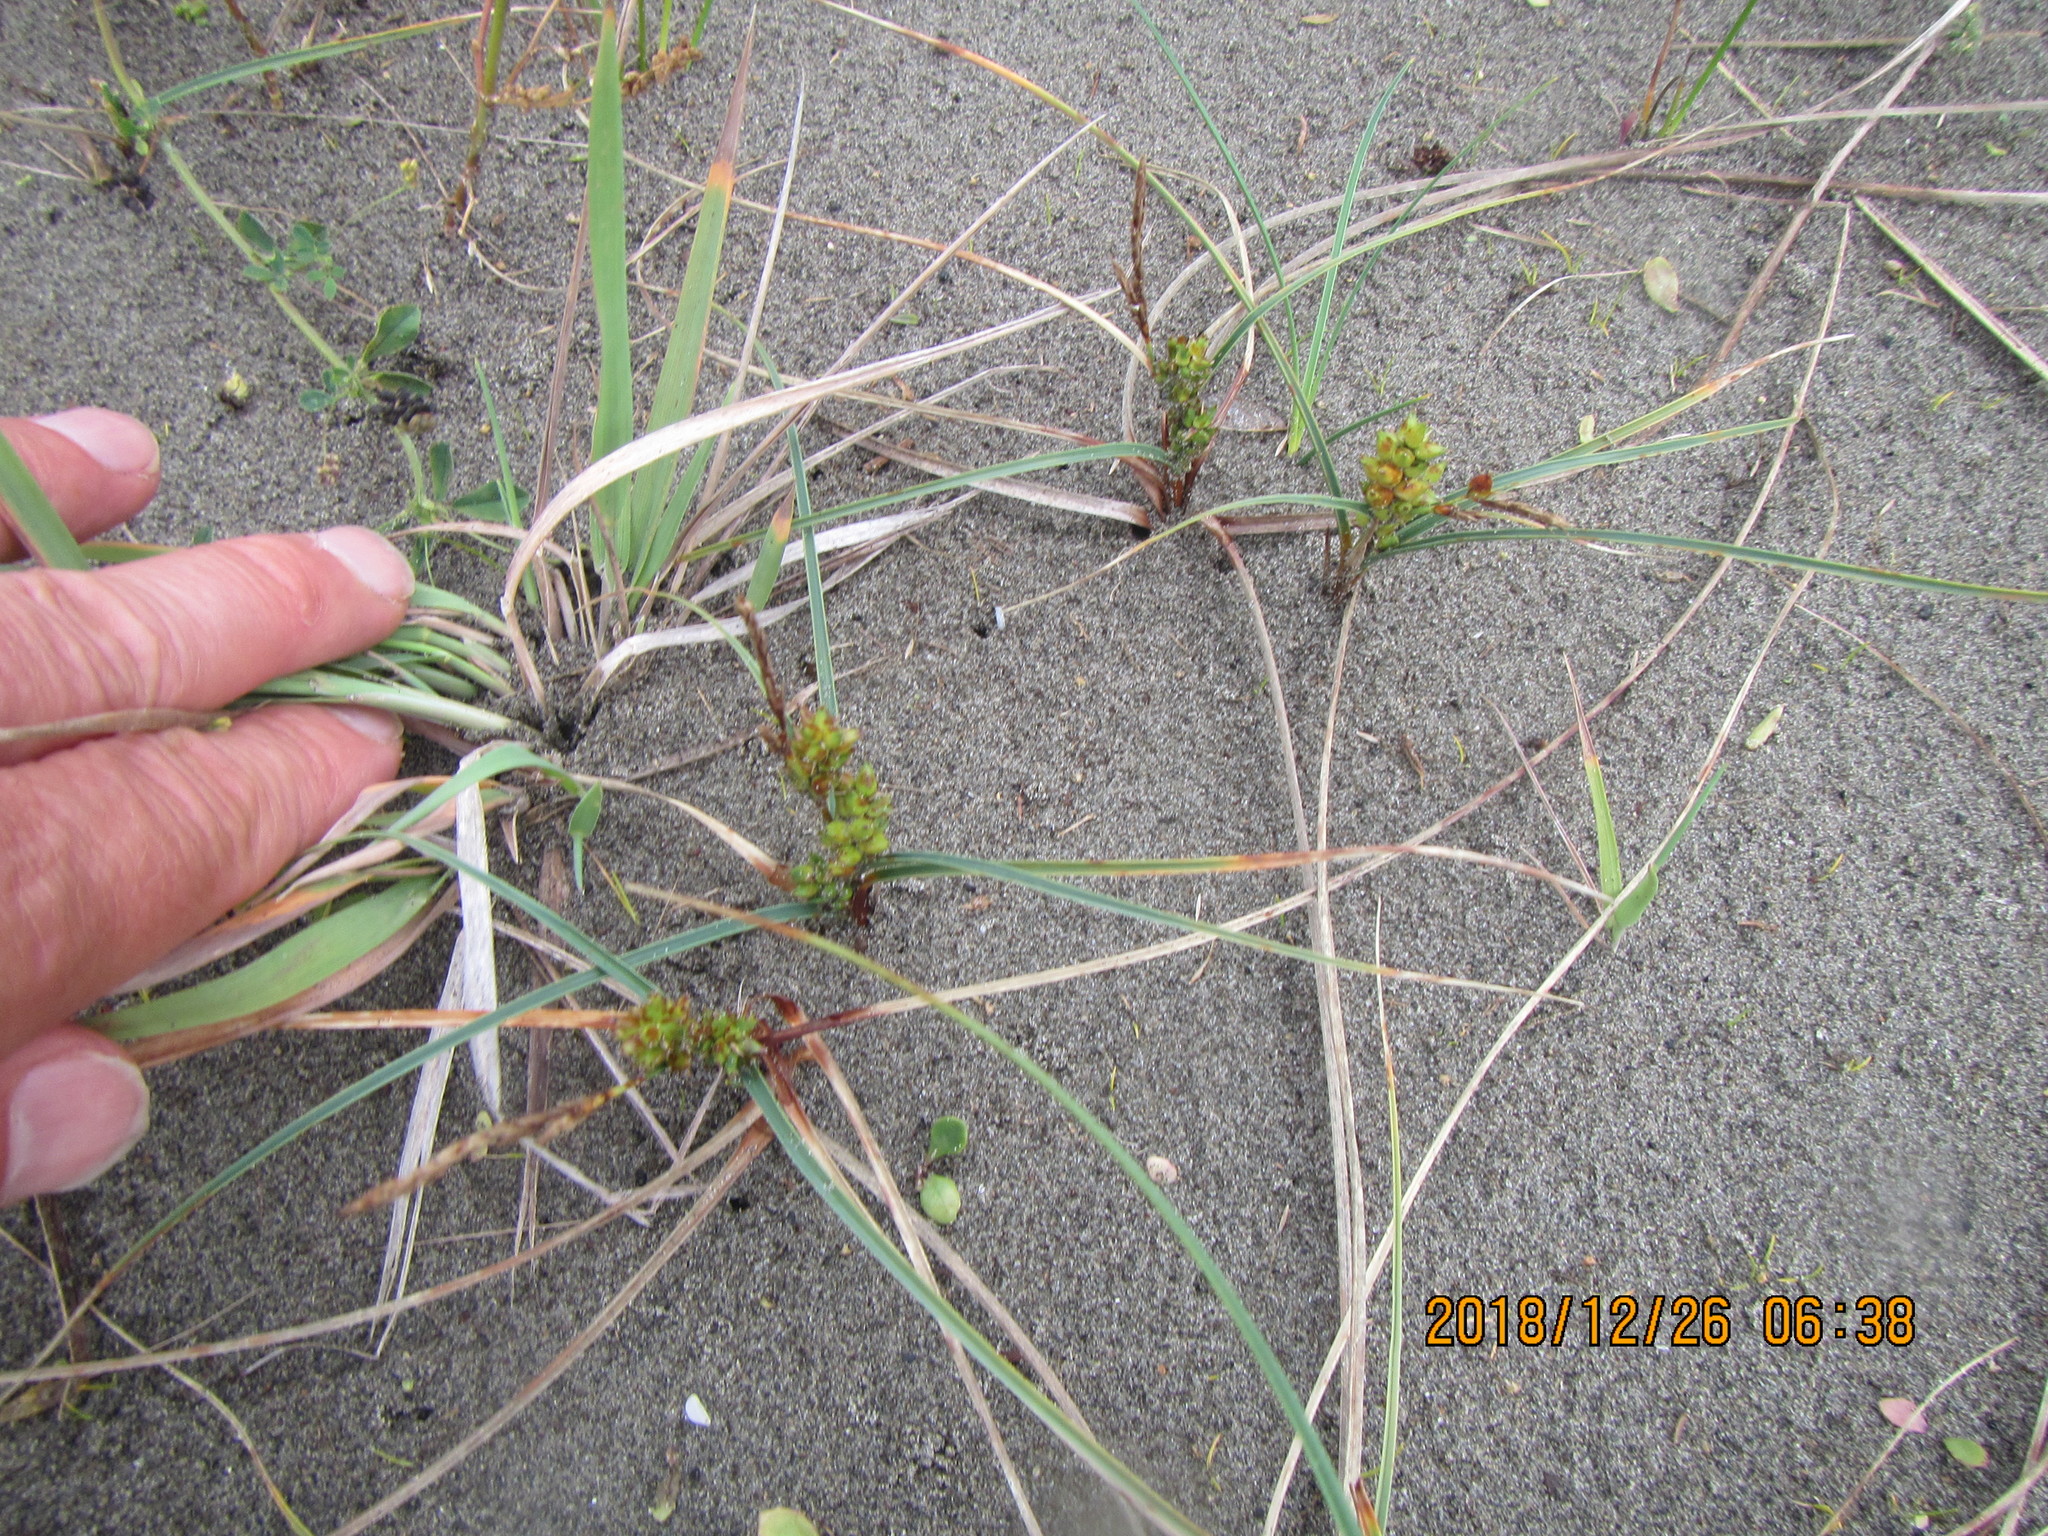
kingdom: Plantae
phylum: Tracheophyta
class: Liliopsida
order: Poales
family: Cyperaceae
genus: Carex
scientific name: Carex pumila
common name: Dwarf sedge
